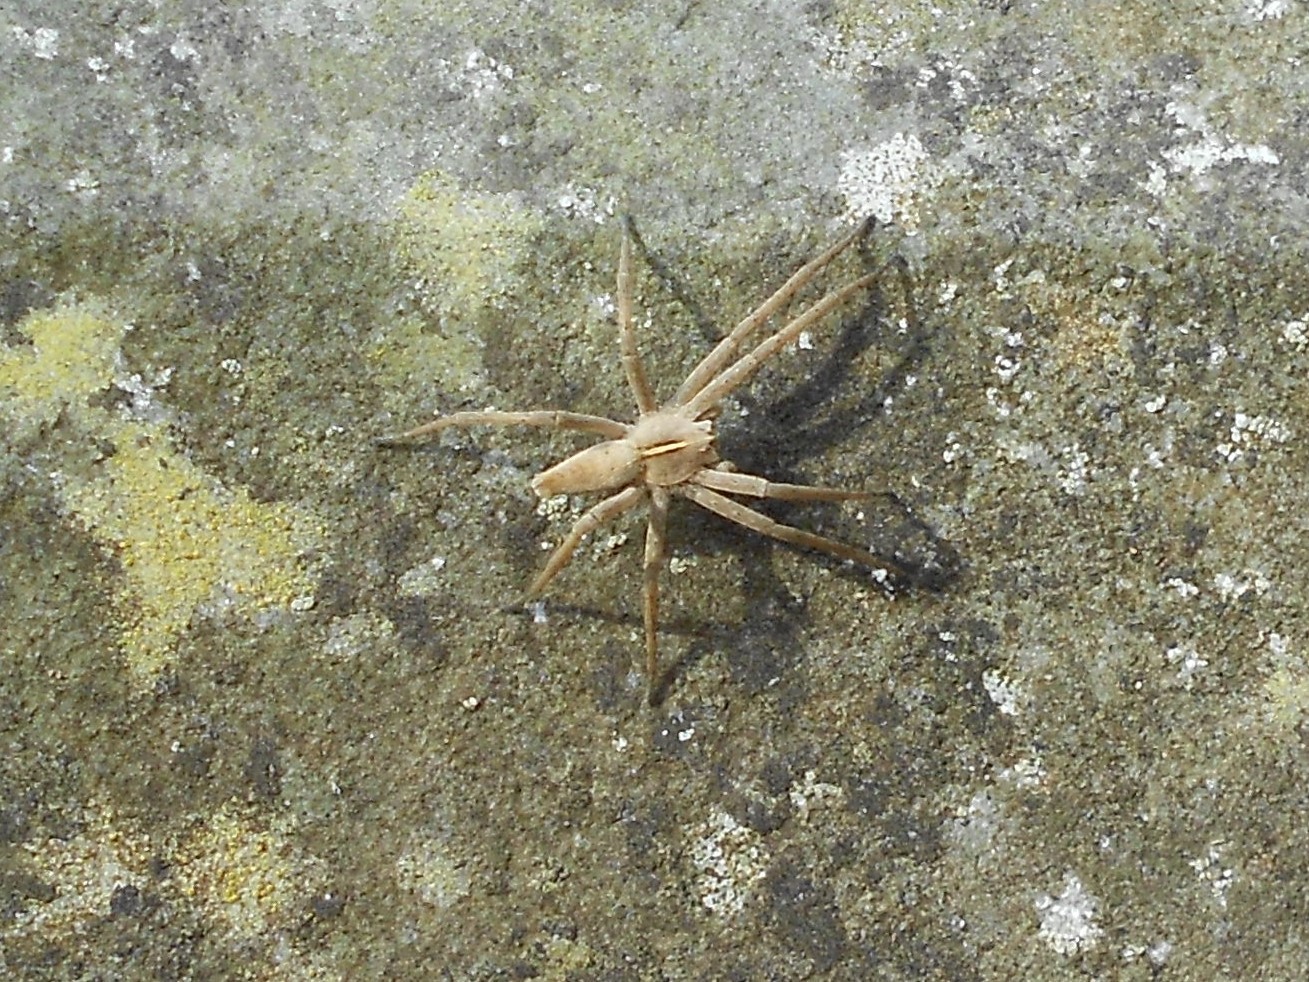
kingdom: Animalia
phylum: Arthropoda
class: Arachnida
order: Araneae
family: Pisauridae
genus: Pisaura
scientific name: Pisaura mirabilis
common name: Tent spider
